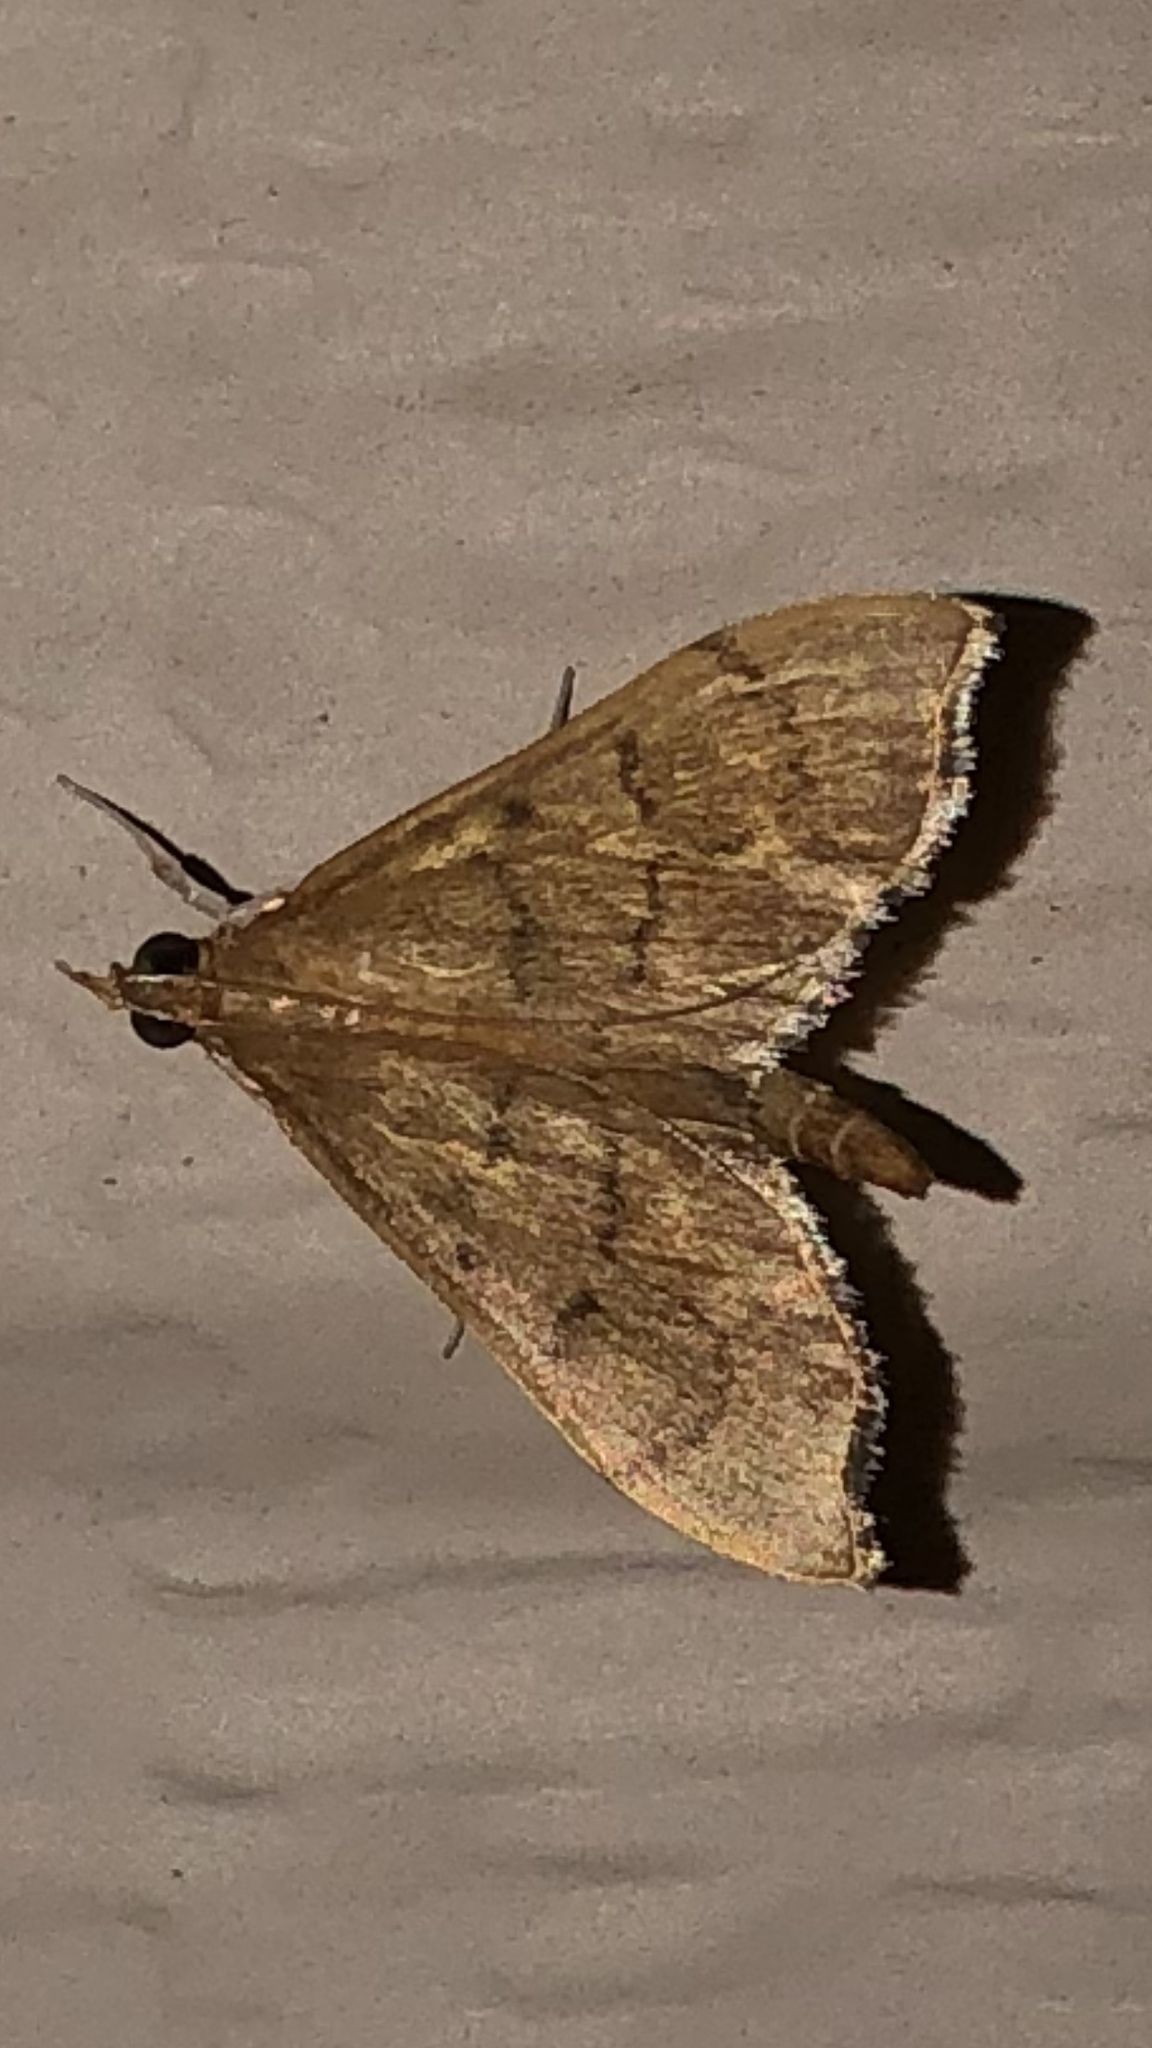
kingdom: Animalia
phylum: Arthropoda
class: Insecta
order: Lepidoptera
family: Crambidae
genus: Sericoplaga
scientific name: Sericoplaga externalis
